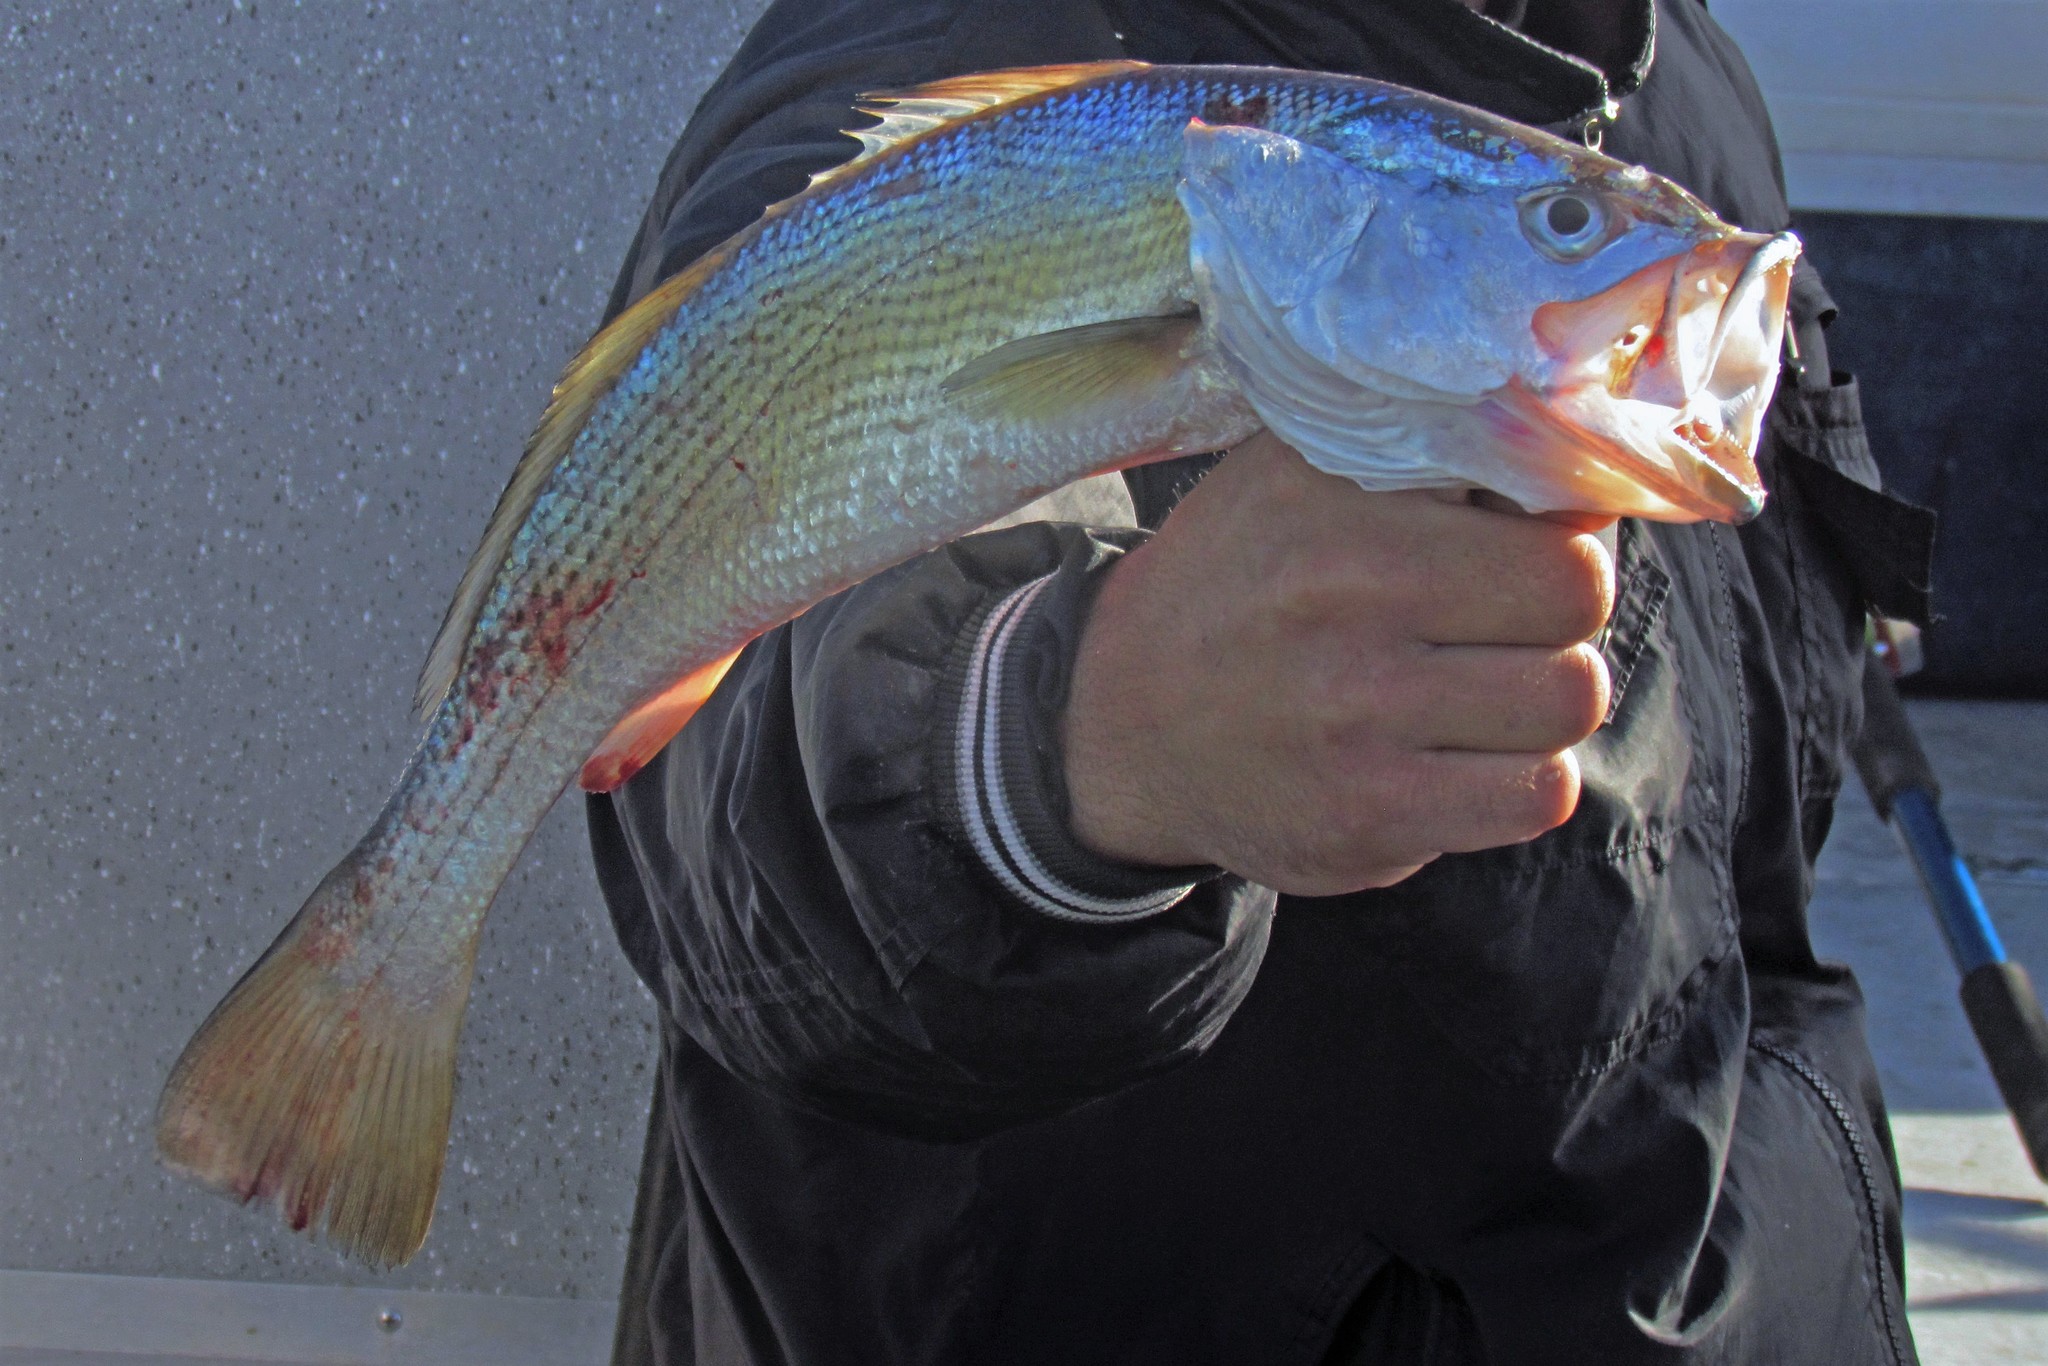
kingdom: Animalia
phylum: Chordata
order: Perciformes
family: Sciaenidae
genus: Cynoscion
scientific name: Cynoscion guatucupa
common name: Stripped weakfish
